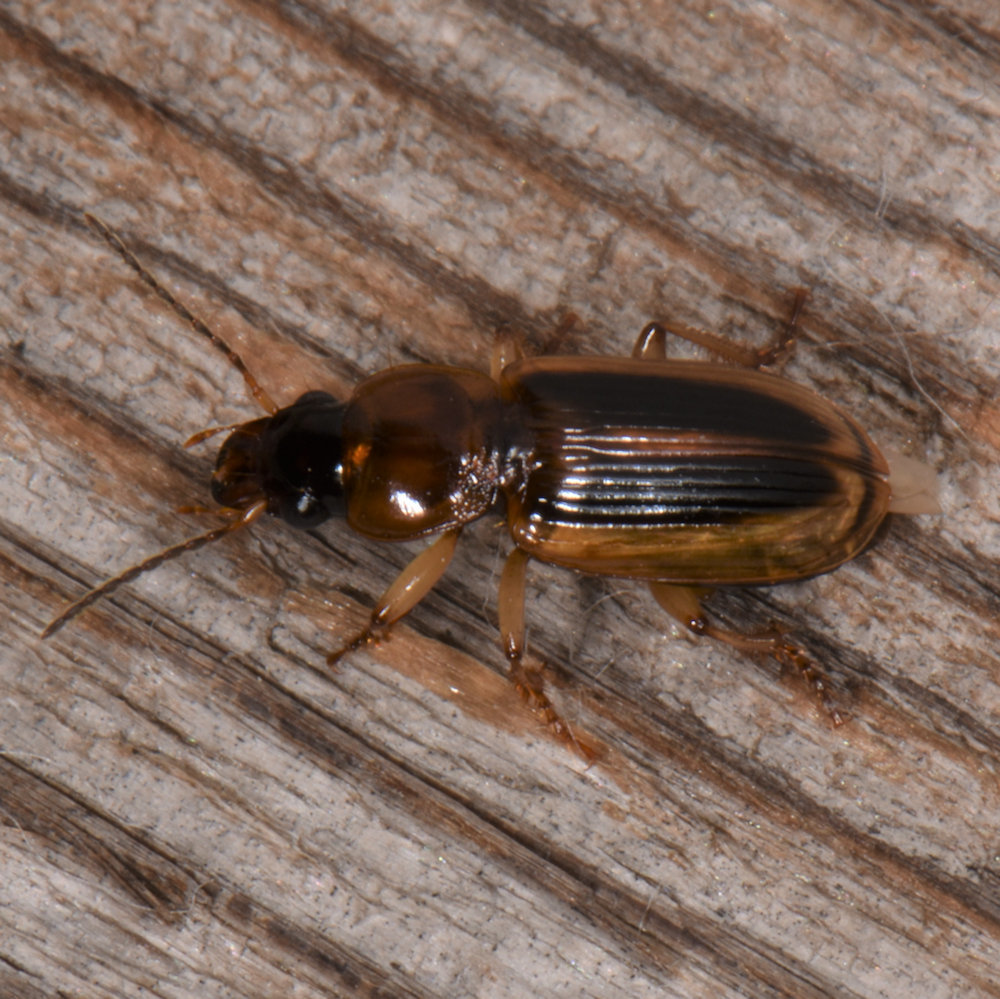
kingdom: Animalia
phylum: Arthropoda
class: Insecta
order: Coleoptera
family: Carabidae
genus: Stenolophus
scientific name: Stenolophus lecontei
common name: Leconte's seedcorn beetle
